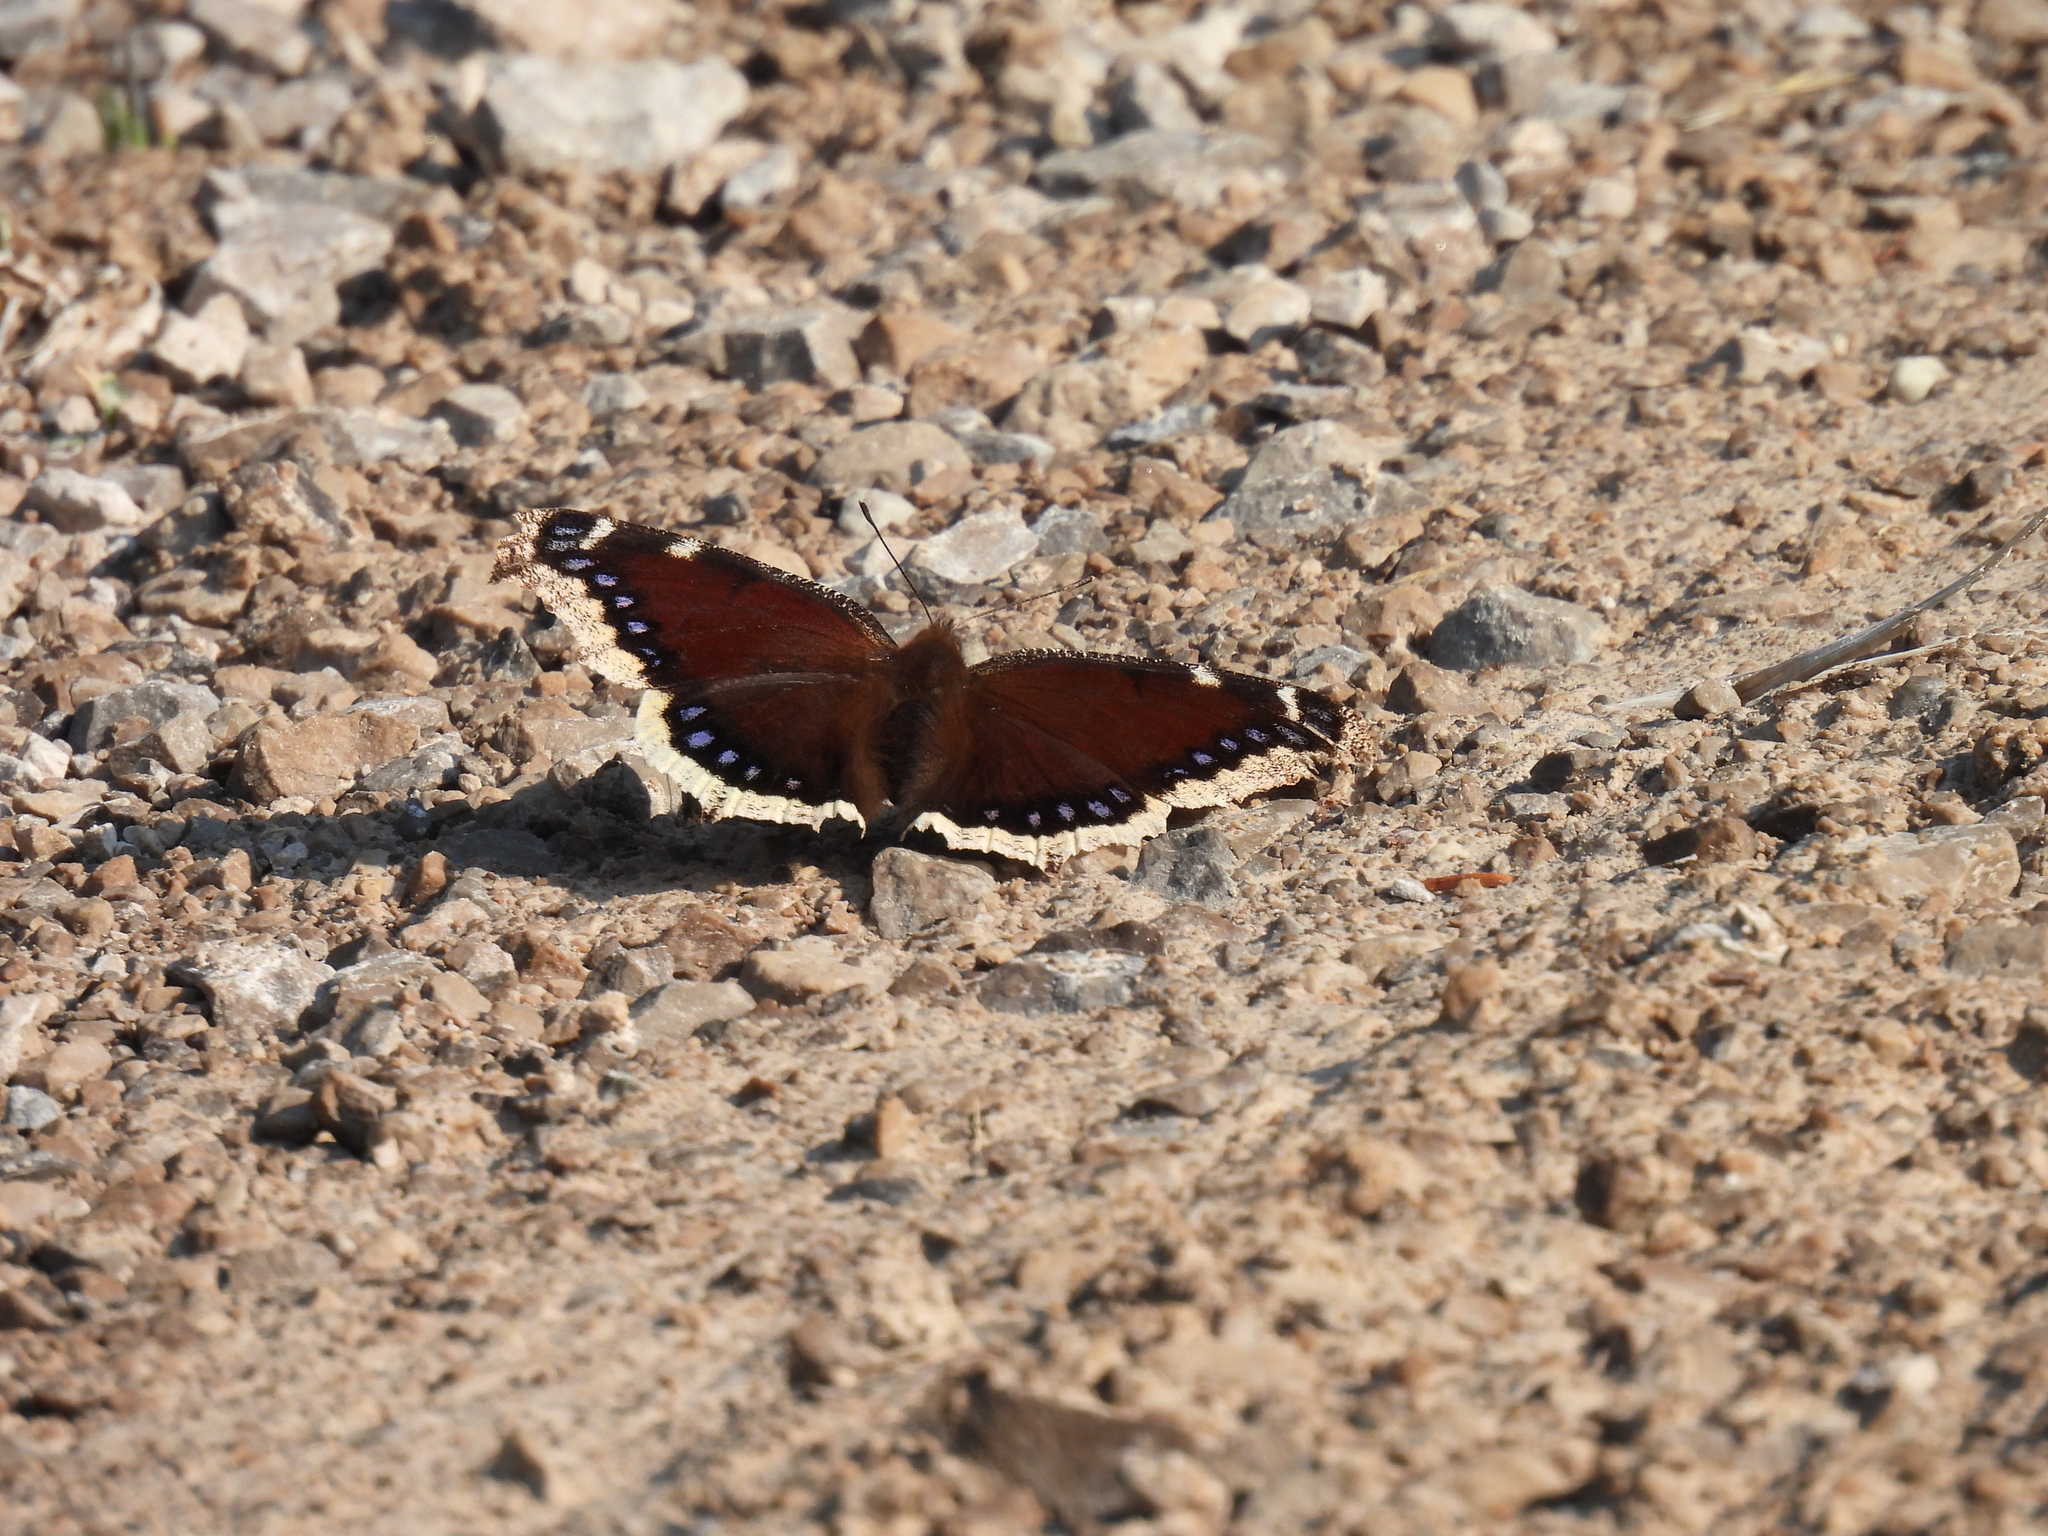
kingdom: Animalia
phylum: Arthropoda
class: Insecta
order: Lepidoptera
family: Nymphalidae
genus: Nymphalis
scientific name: Nymphalis antiopa
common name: Camberwell beauty
